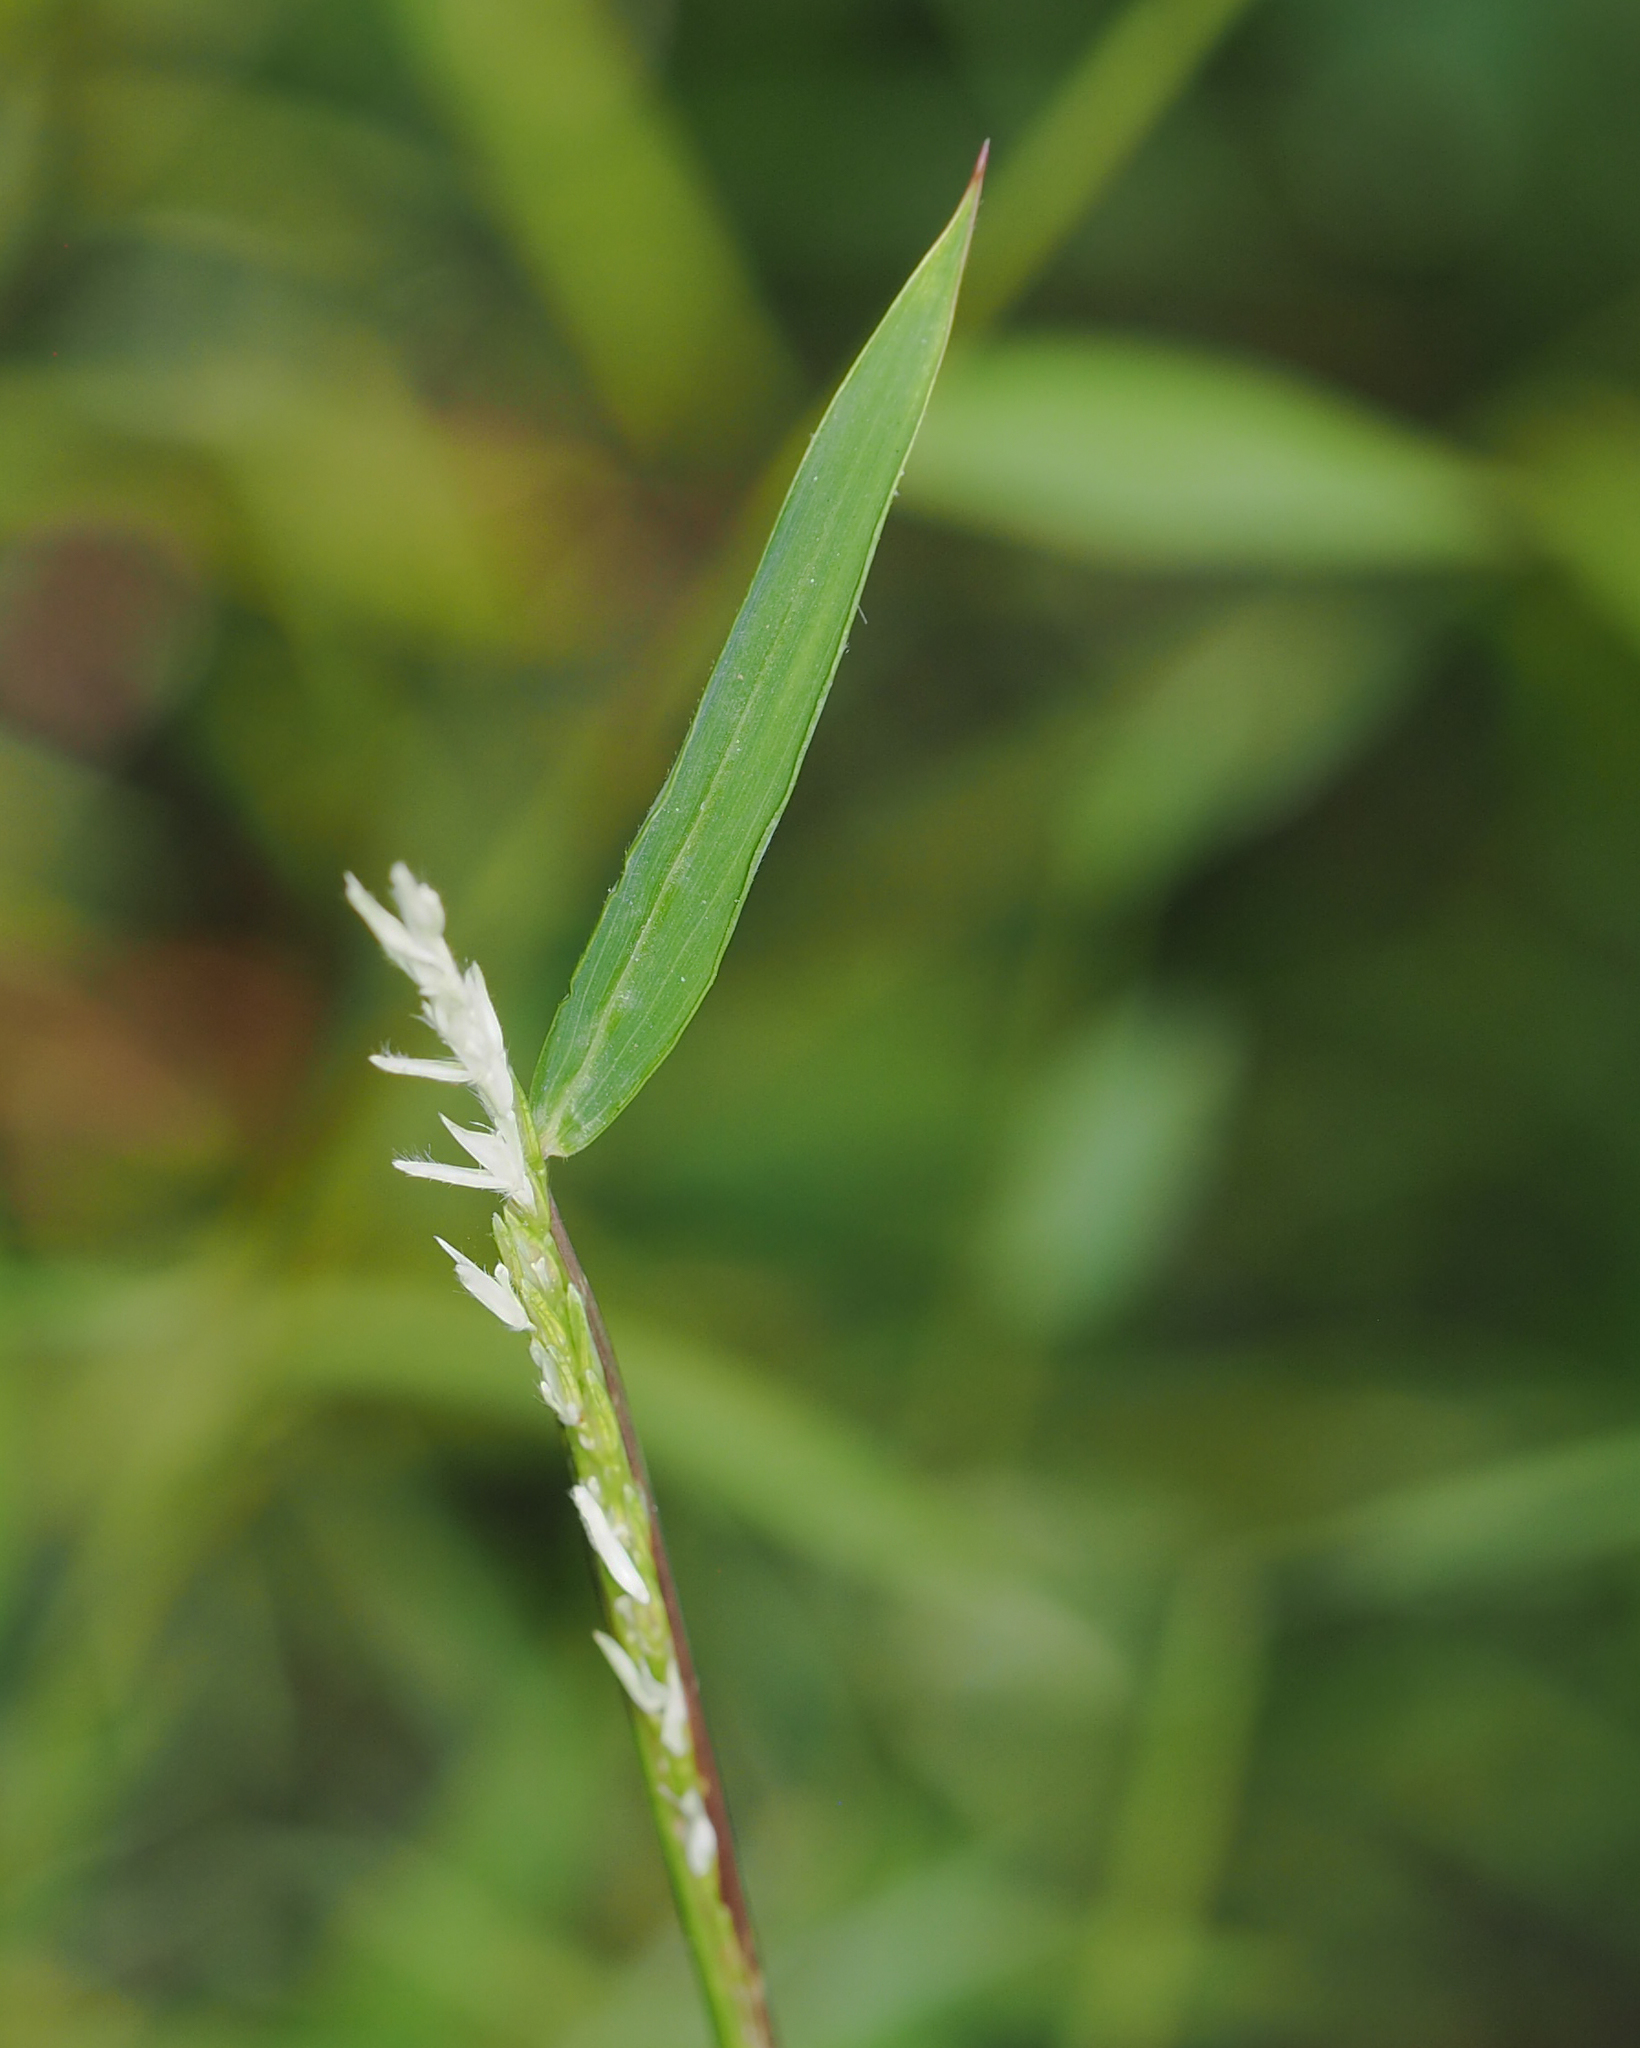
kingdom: Plantae
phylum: Tracheophyta
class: Liliopsida
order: Poales
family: Poaceae
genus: Microstegium
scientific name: Microstegium vimineum
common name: Japanese stiltgrass
